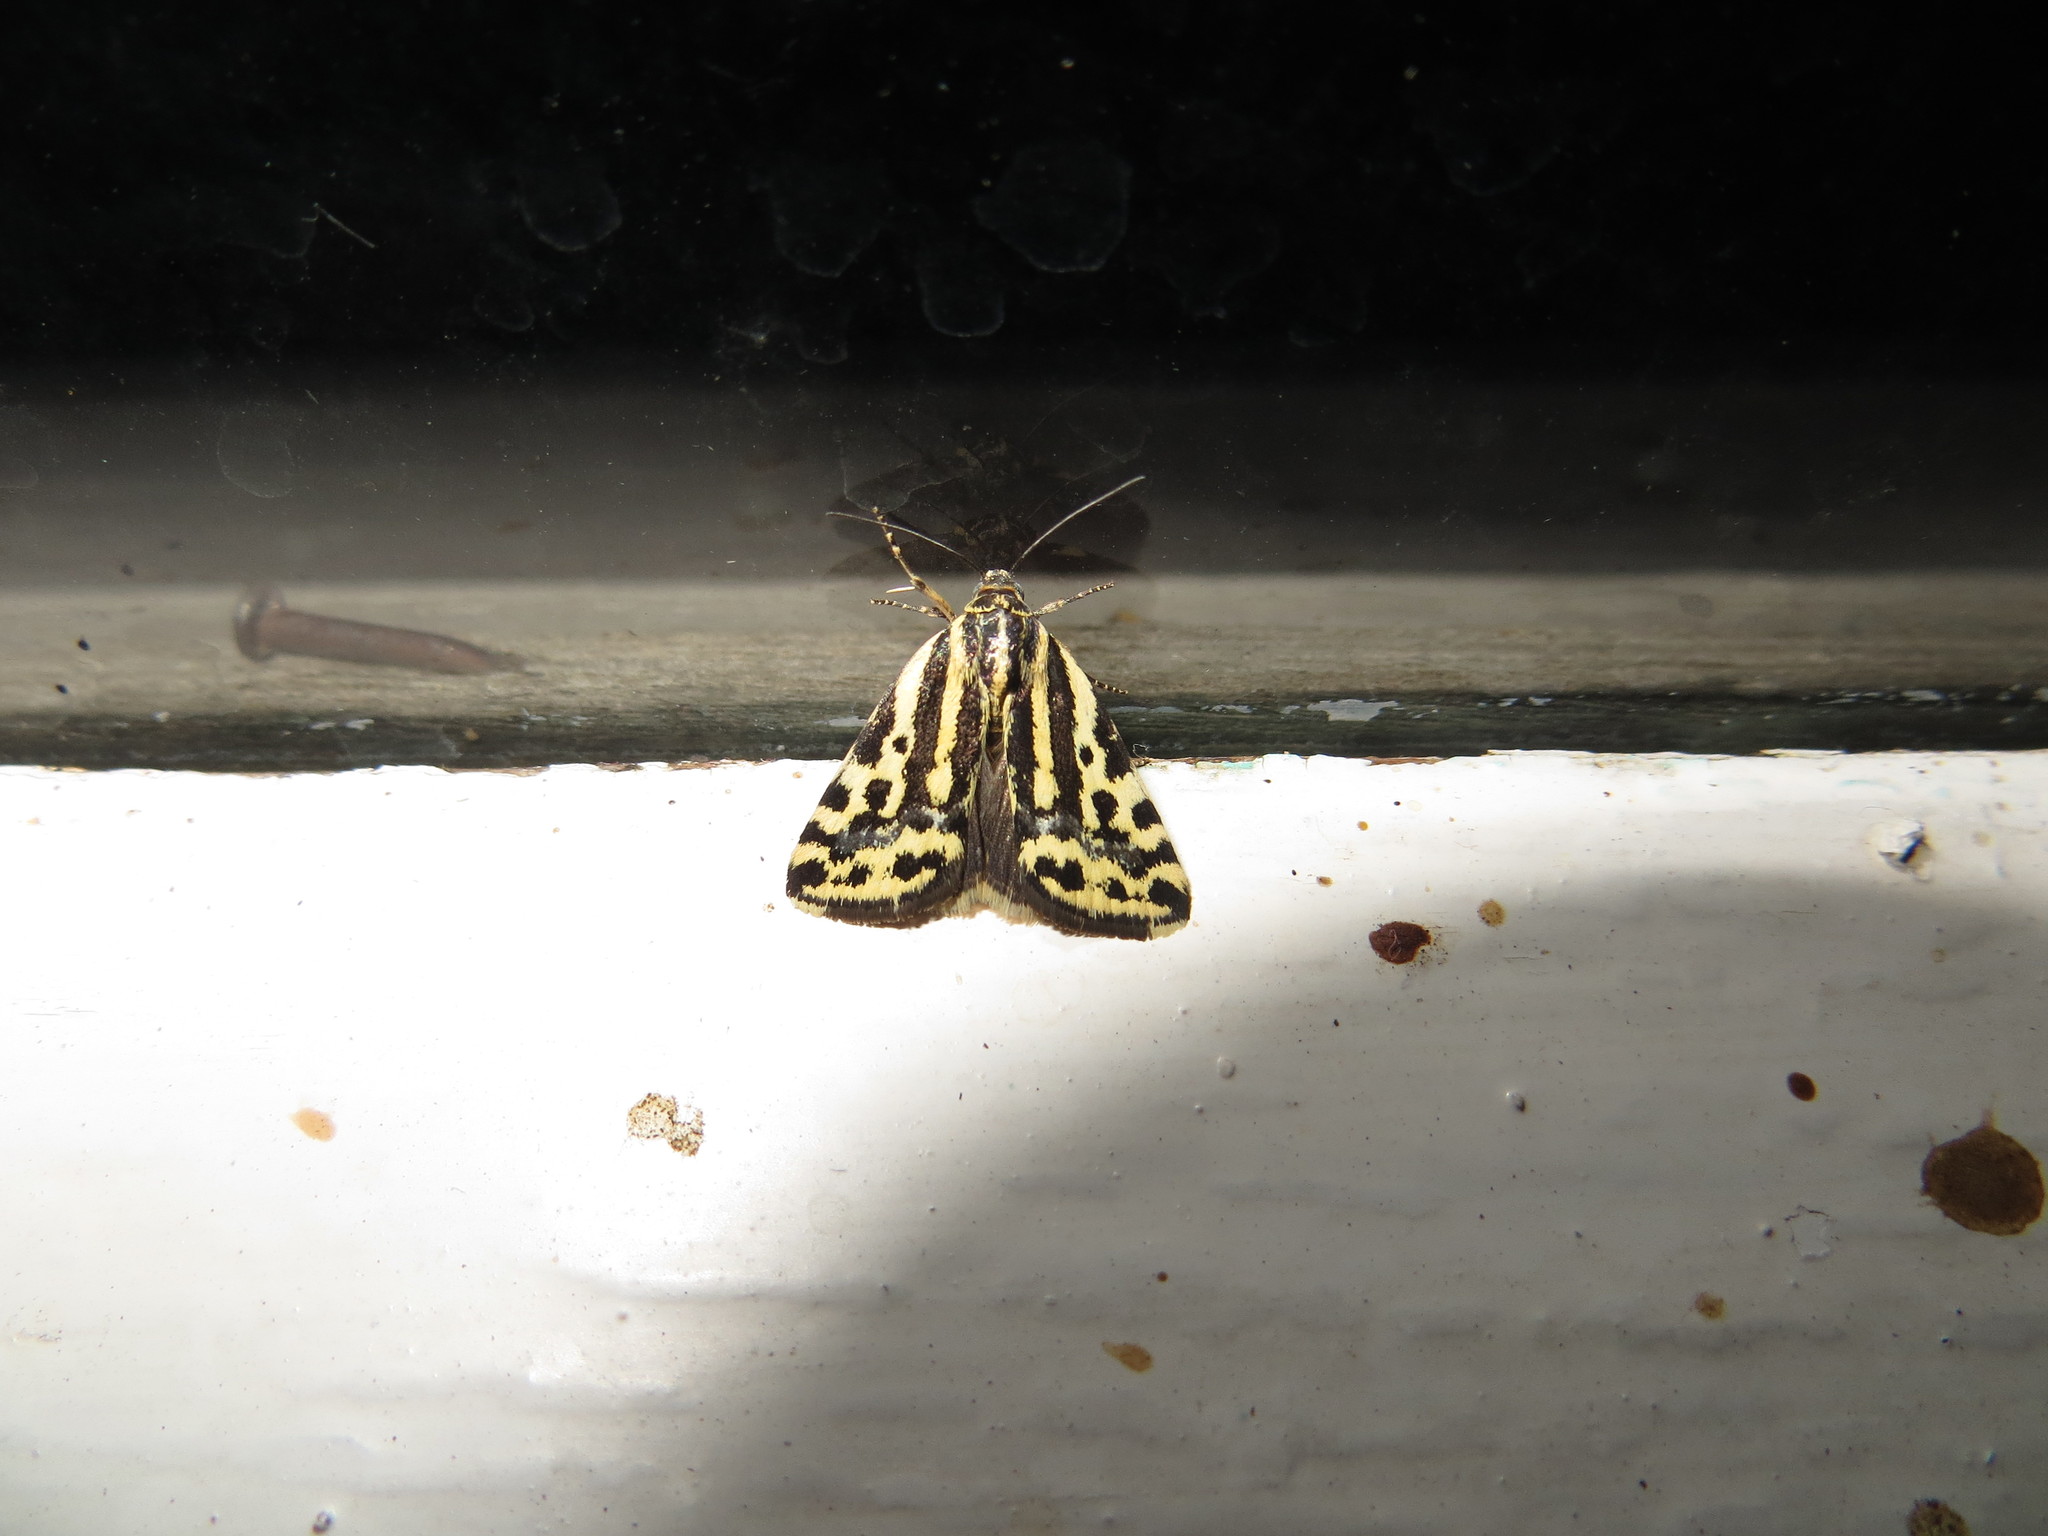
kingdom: Animalia
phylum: Arthropoda
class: Insecta
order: Lepidoptera
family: Noctuidae
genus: Acontia
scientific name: Acontia trabealis
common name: Spotted sulphur
